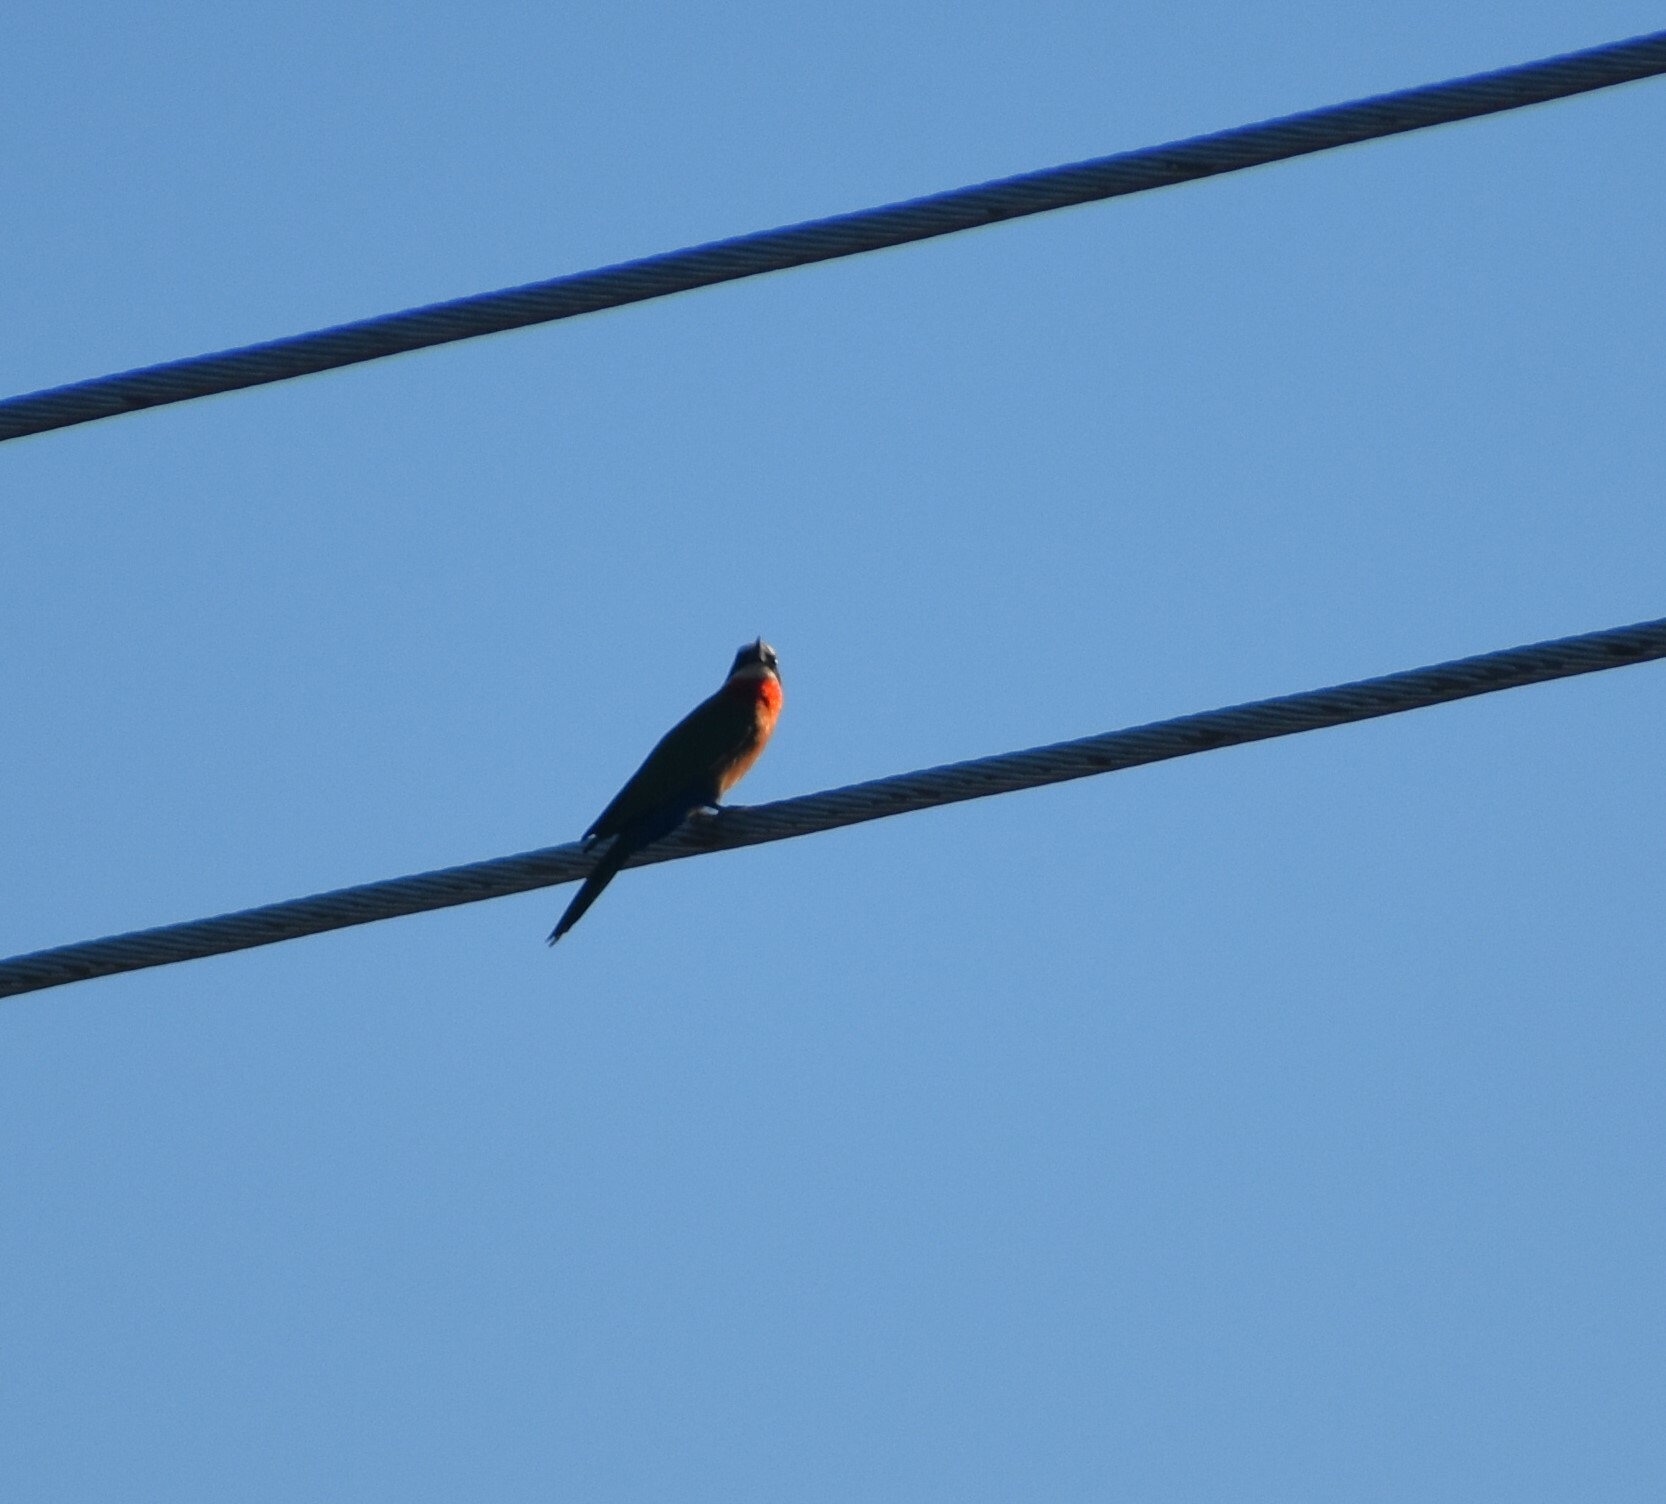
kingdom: Animalia
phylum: Chordata
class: Aves
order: Coraciiformes
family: Meropidae
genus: Merops
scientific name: Merops bullockoides
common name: White-fronted bee-eater
